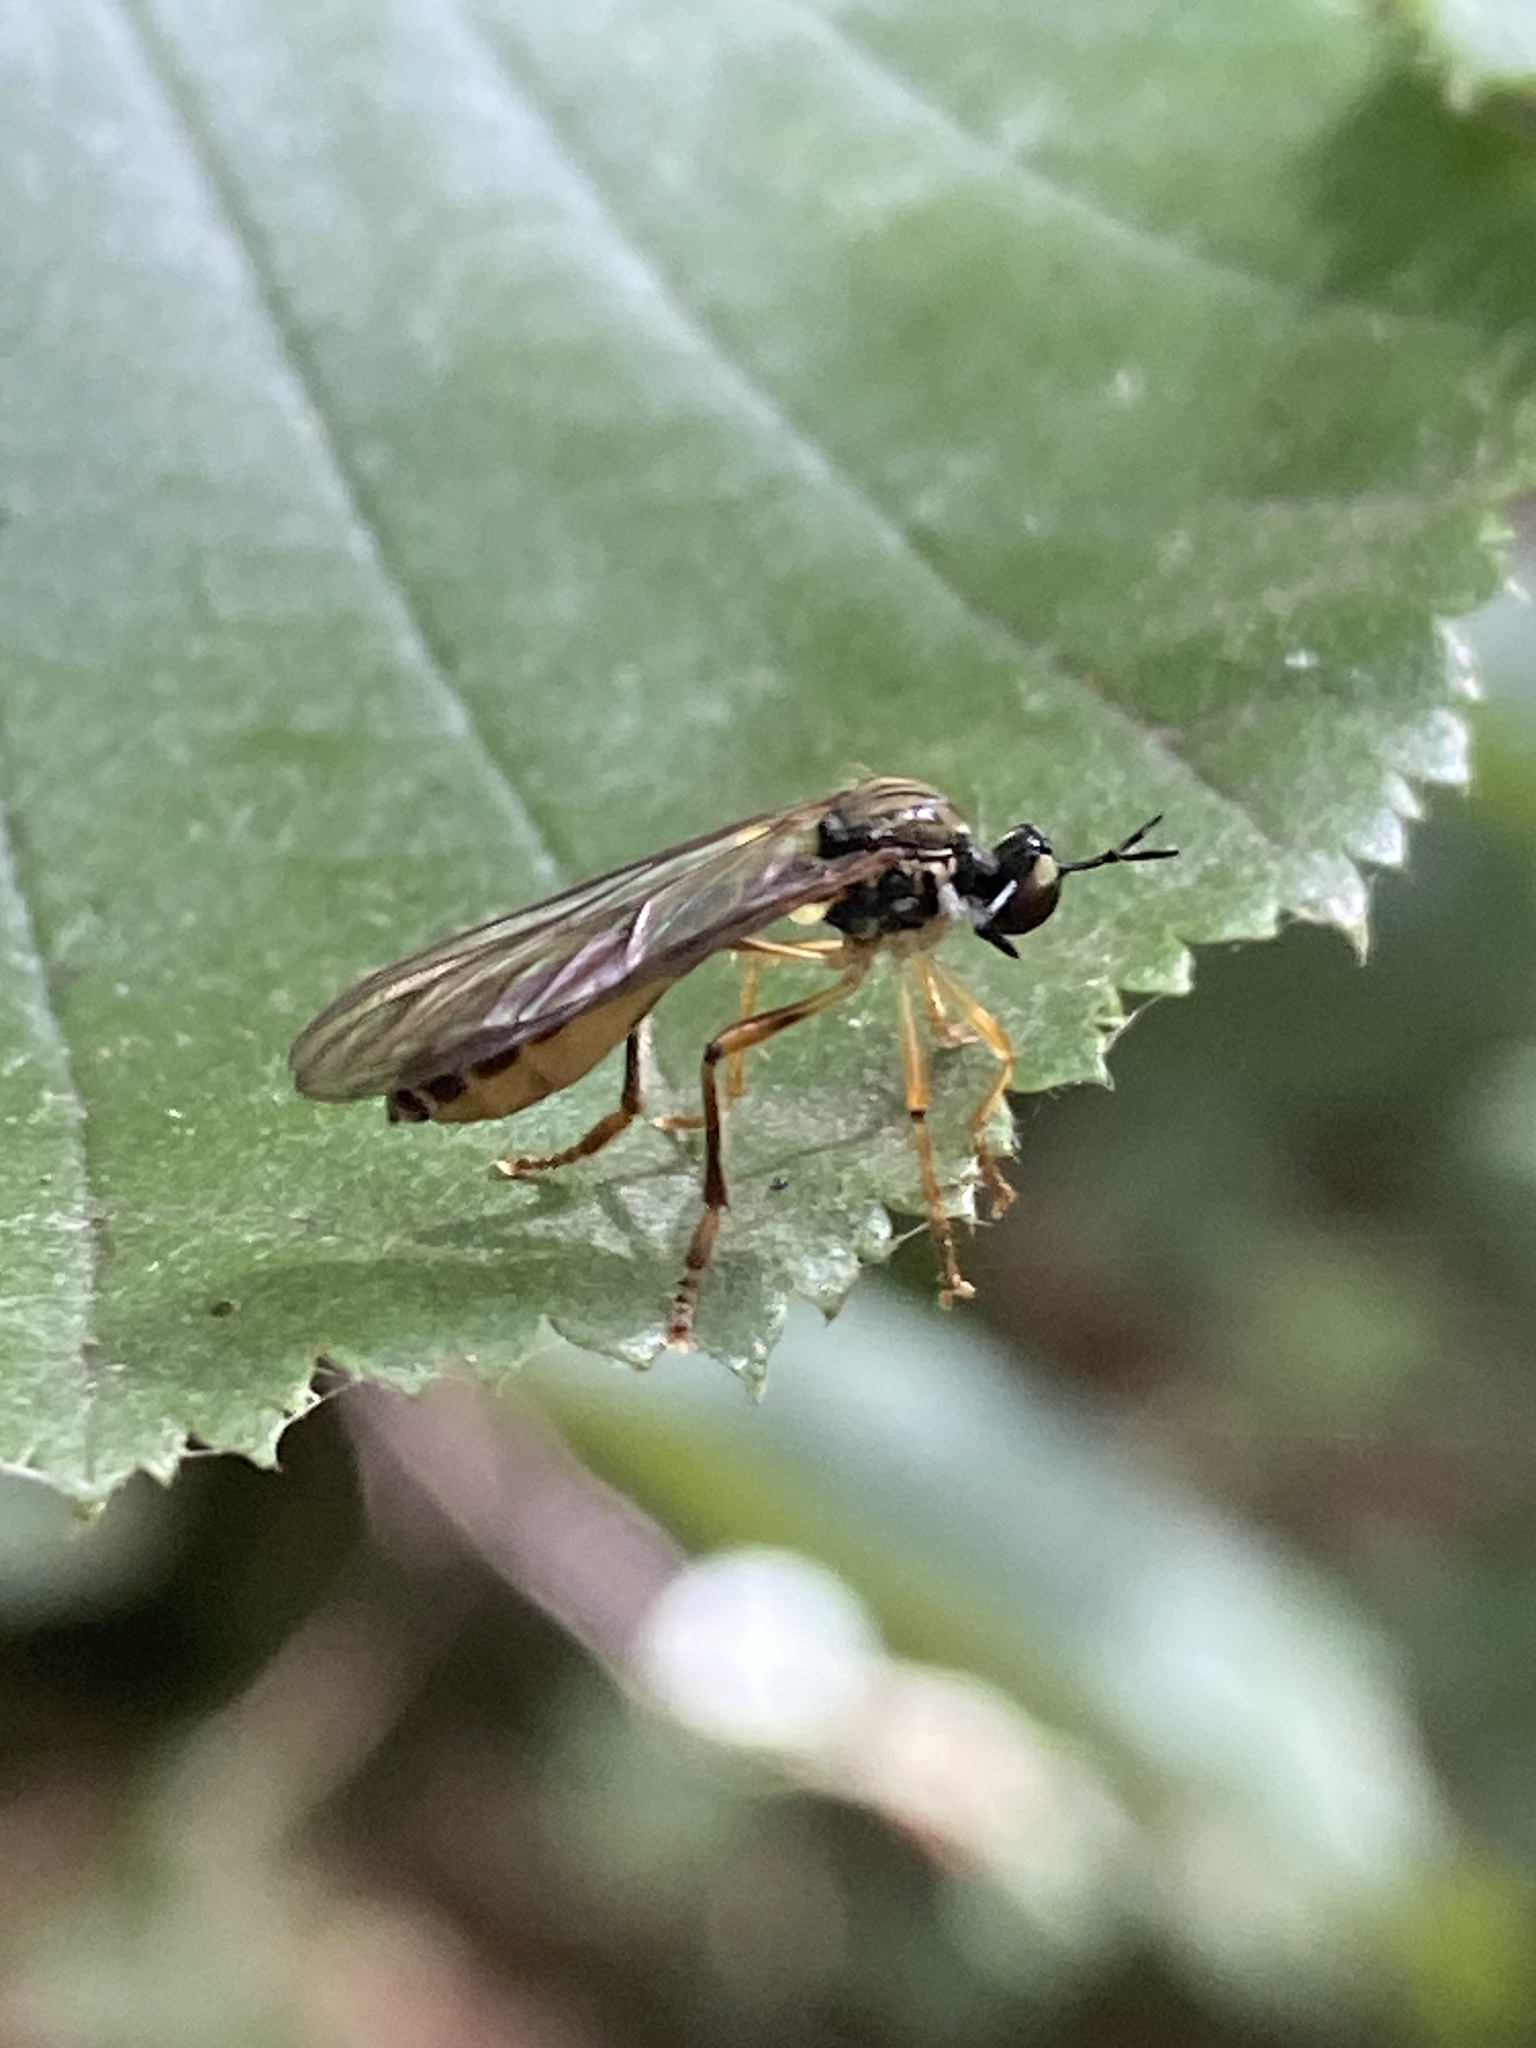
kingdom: Animalia
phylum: Arthropoda
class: Insecta
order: Diptera
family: Asilidae
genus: Dioctria
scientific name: Dioctria linearis
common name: Small yellow-legged robberfly
